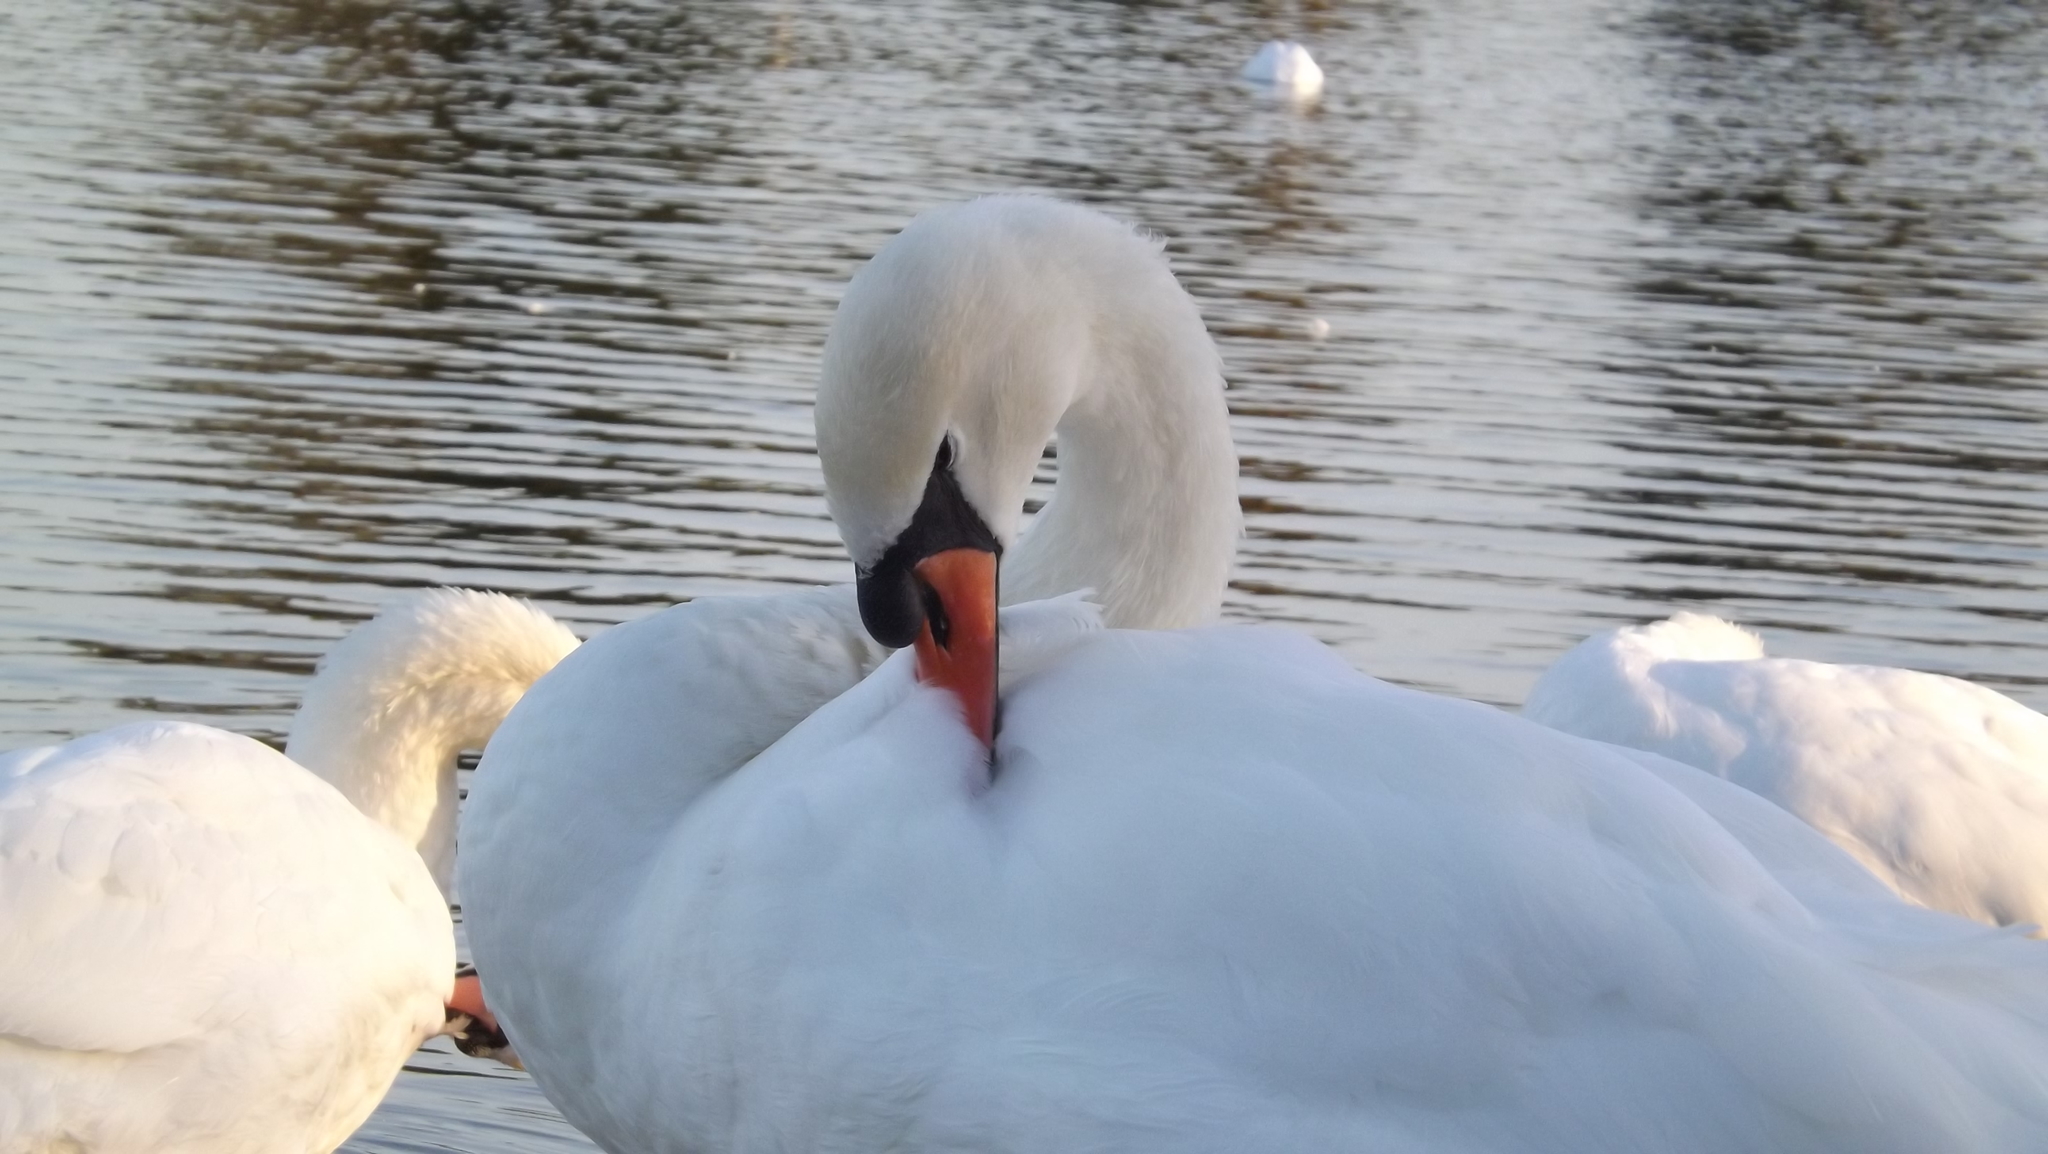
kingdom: Animalia
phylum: Chordata
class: Aves
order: Anseriformes
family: Anatidae
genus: Cygnus
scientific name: Cygnus olor
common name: Mute swan
